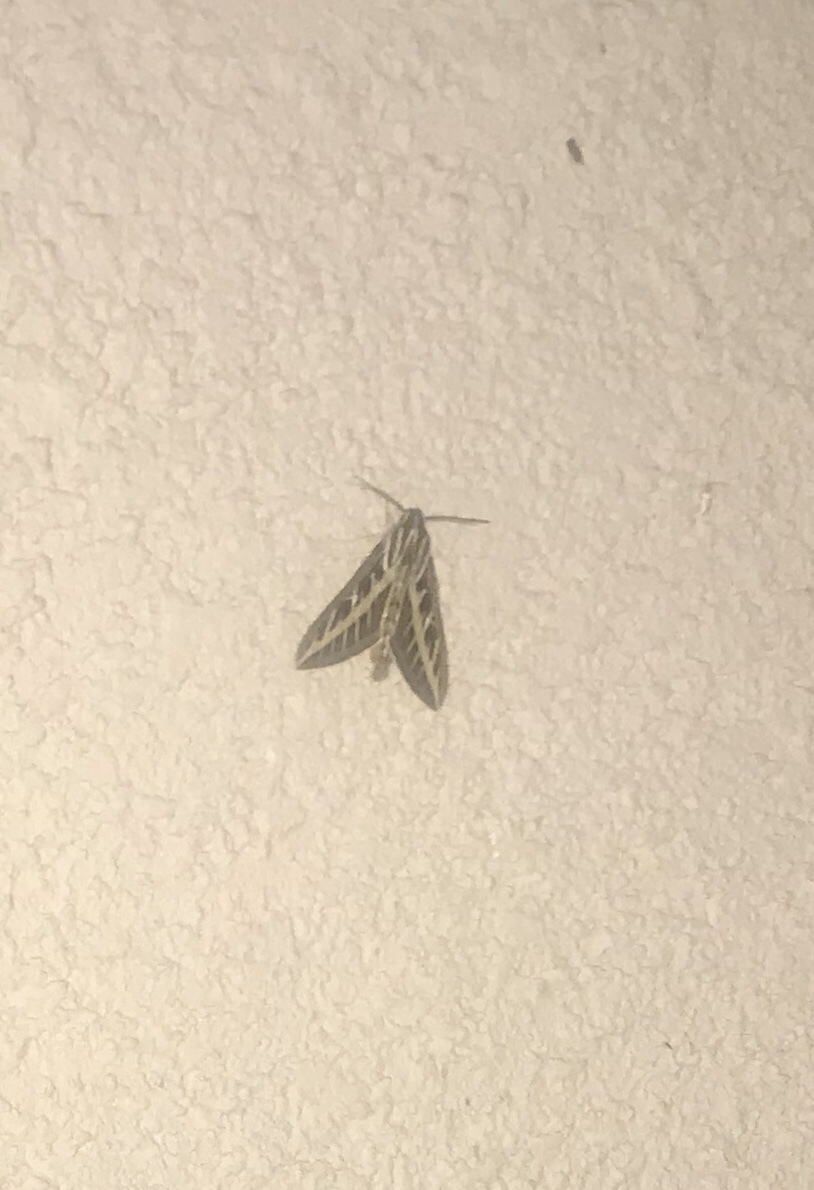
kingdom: Animalia
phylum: Arthropoda
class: Insecta
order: Lepidoptera
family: Sphingidae
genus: Hyles
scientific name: Hyles lineata
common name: White-lined sphinx
